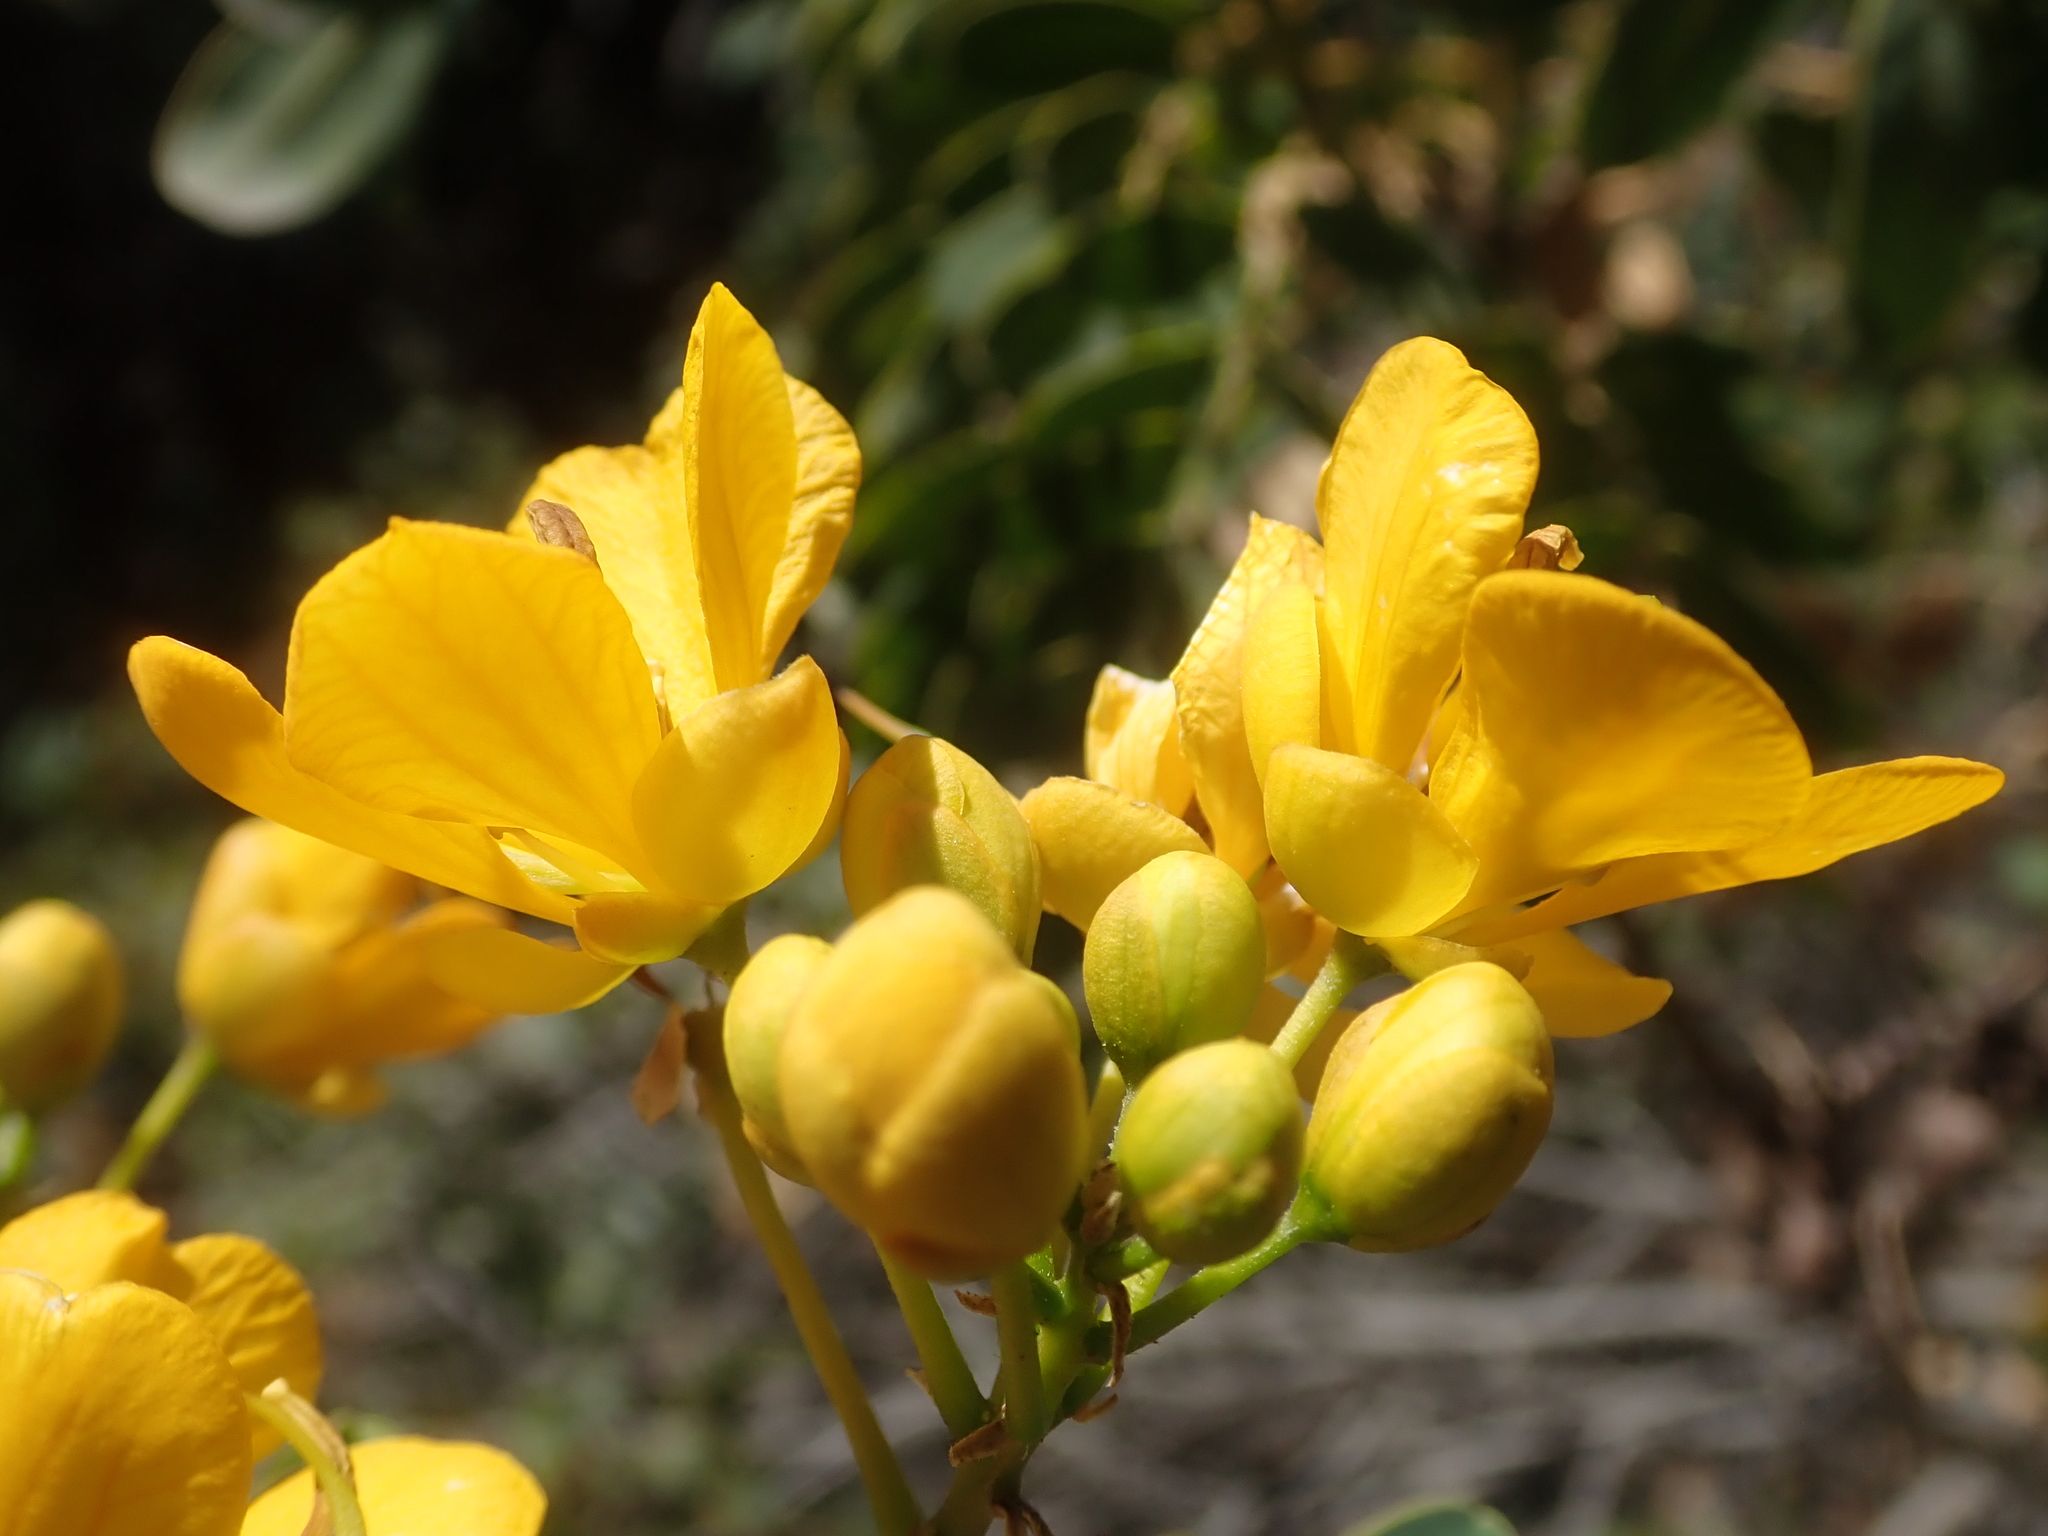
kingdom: Plantae
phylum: Tracheophyta
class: Magnoliopsida
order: Fabales
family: Fabaceae
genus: Senna
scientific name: Senna candolleana
